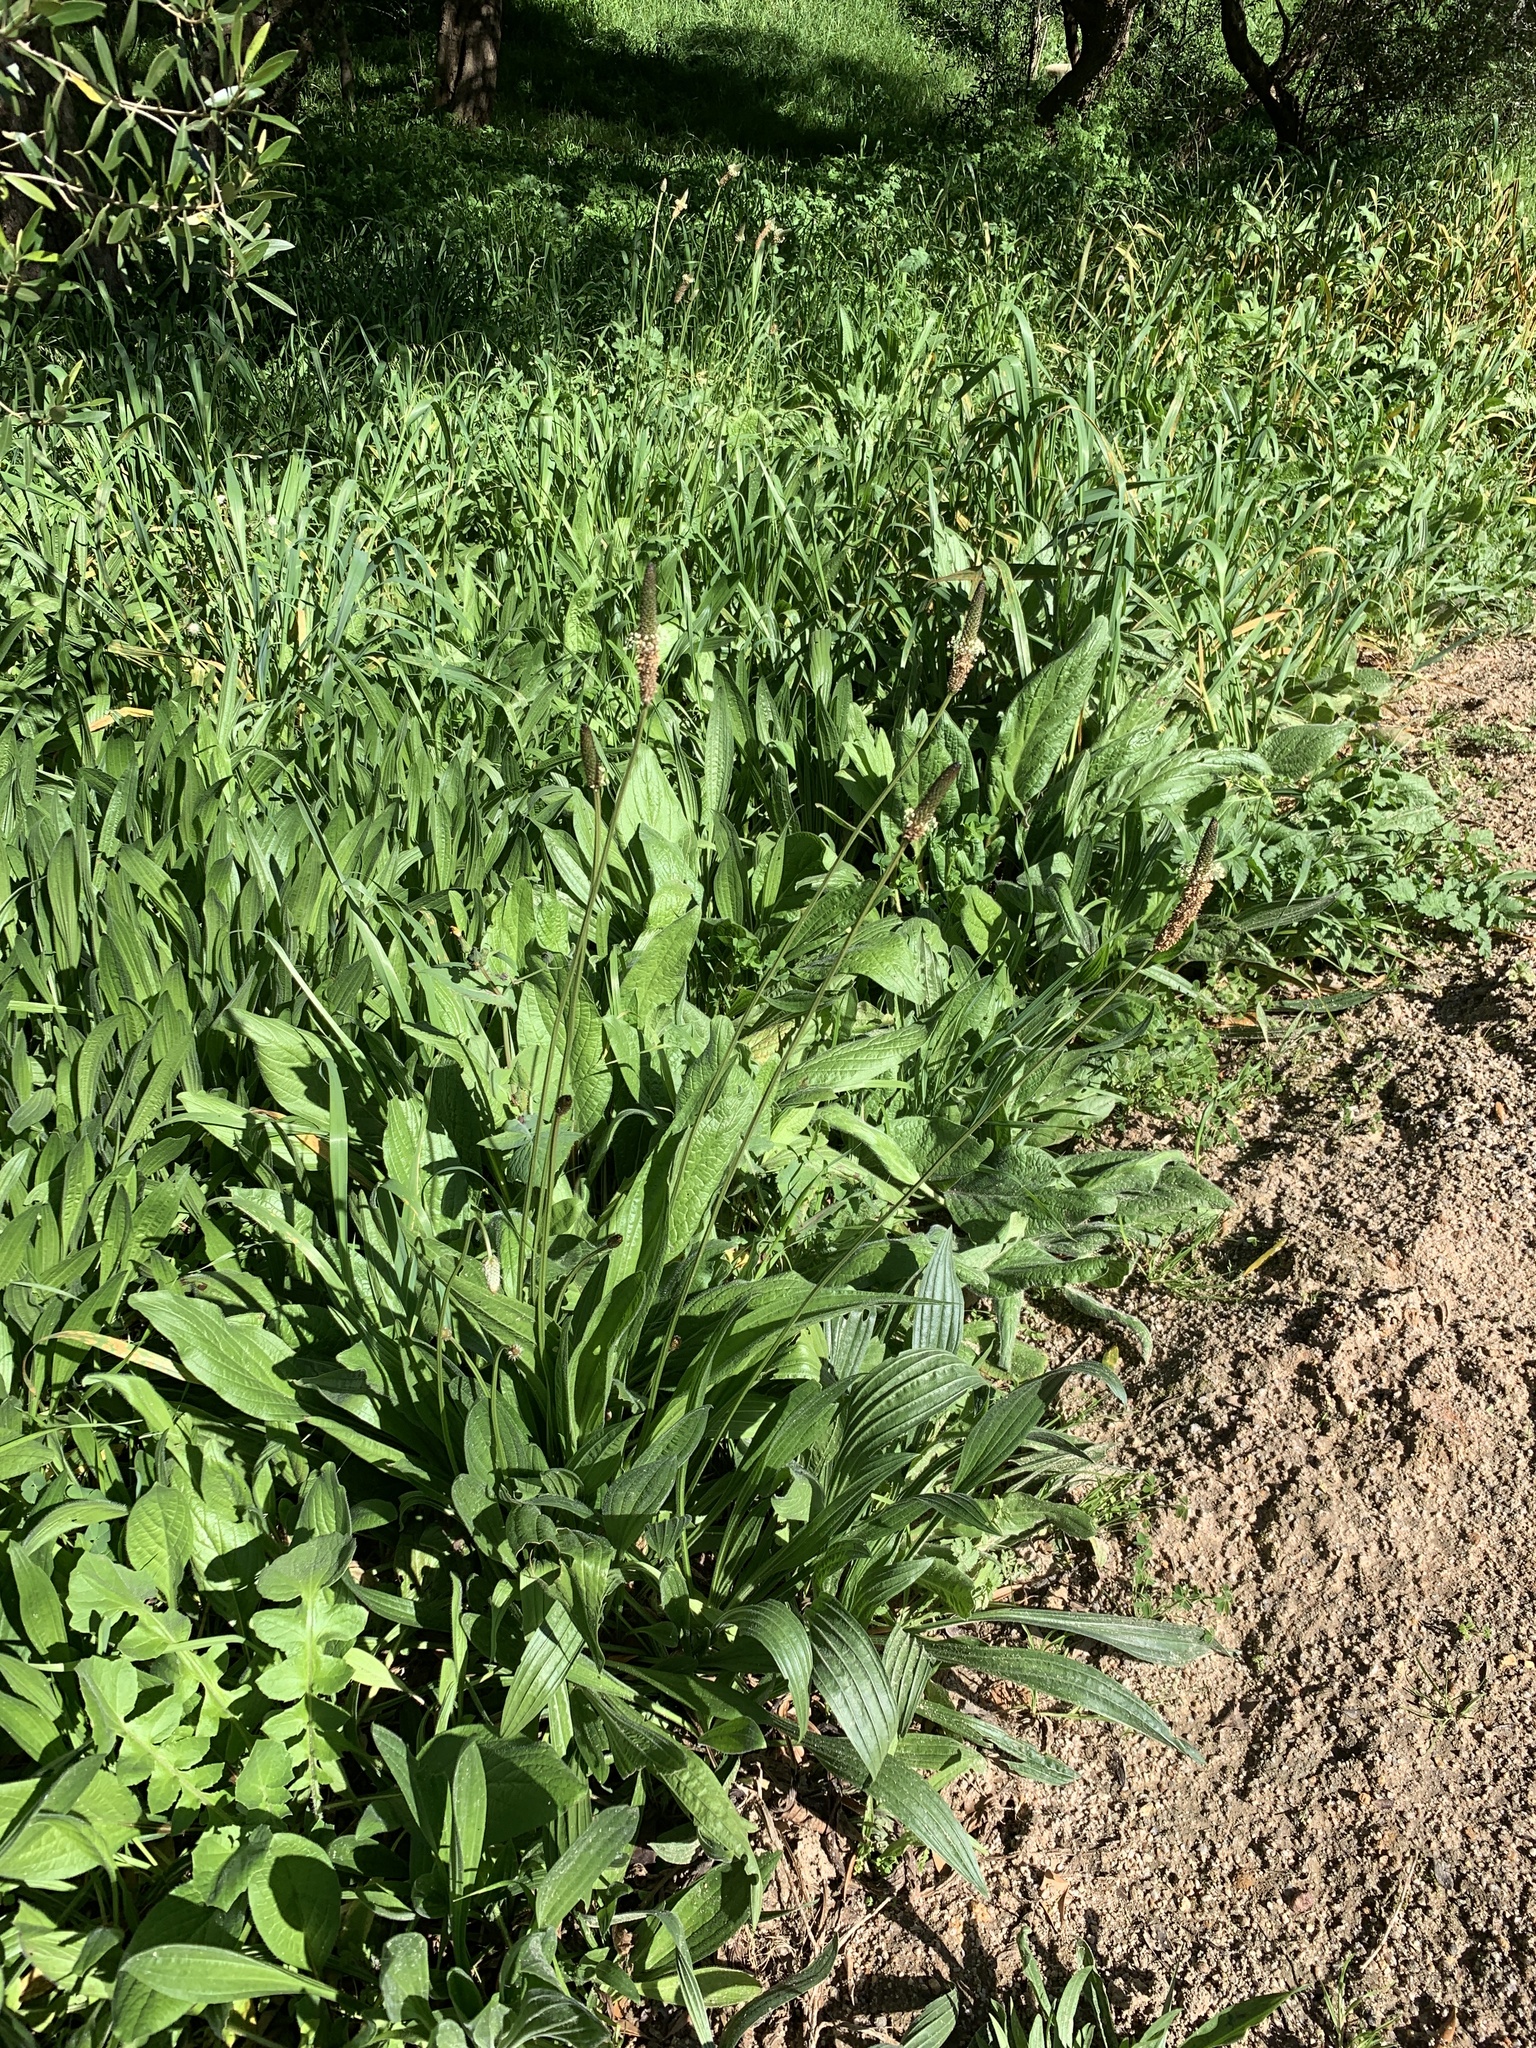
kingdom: Plantae
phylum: Tracheophyta
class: Magnoliopsida
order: Lamiales
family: Plantaginaceae
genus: Plantago
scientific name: Plantago lanceolata
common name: Ribwort plantain
